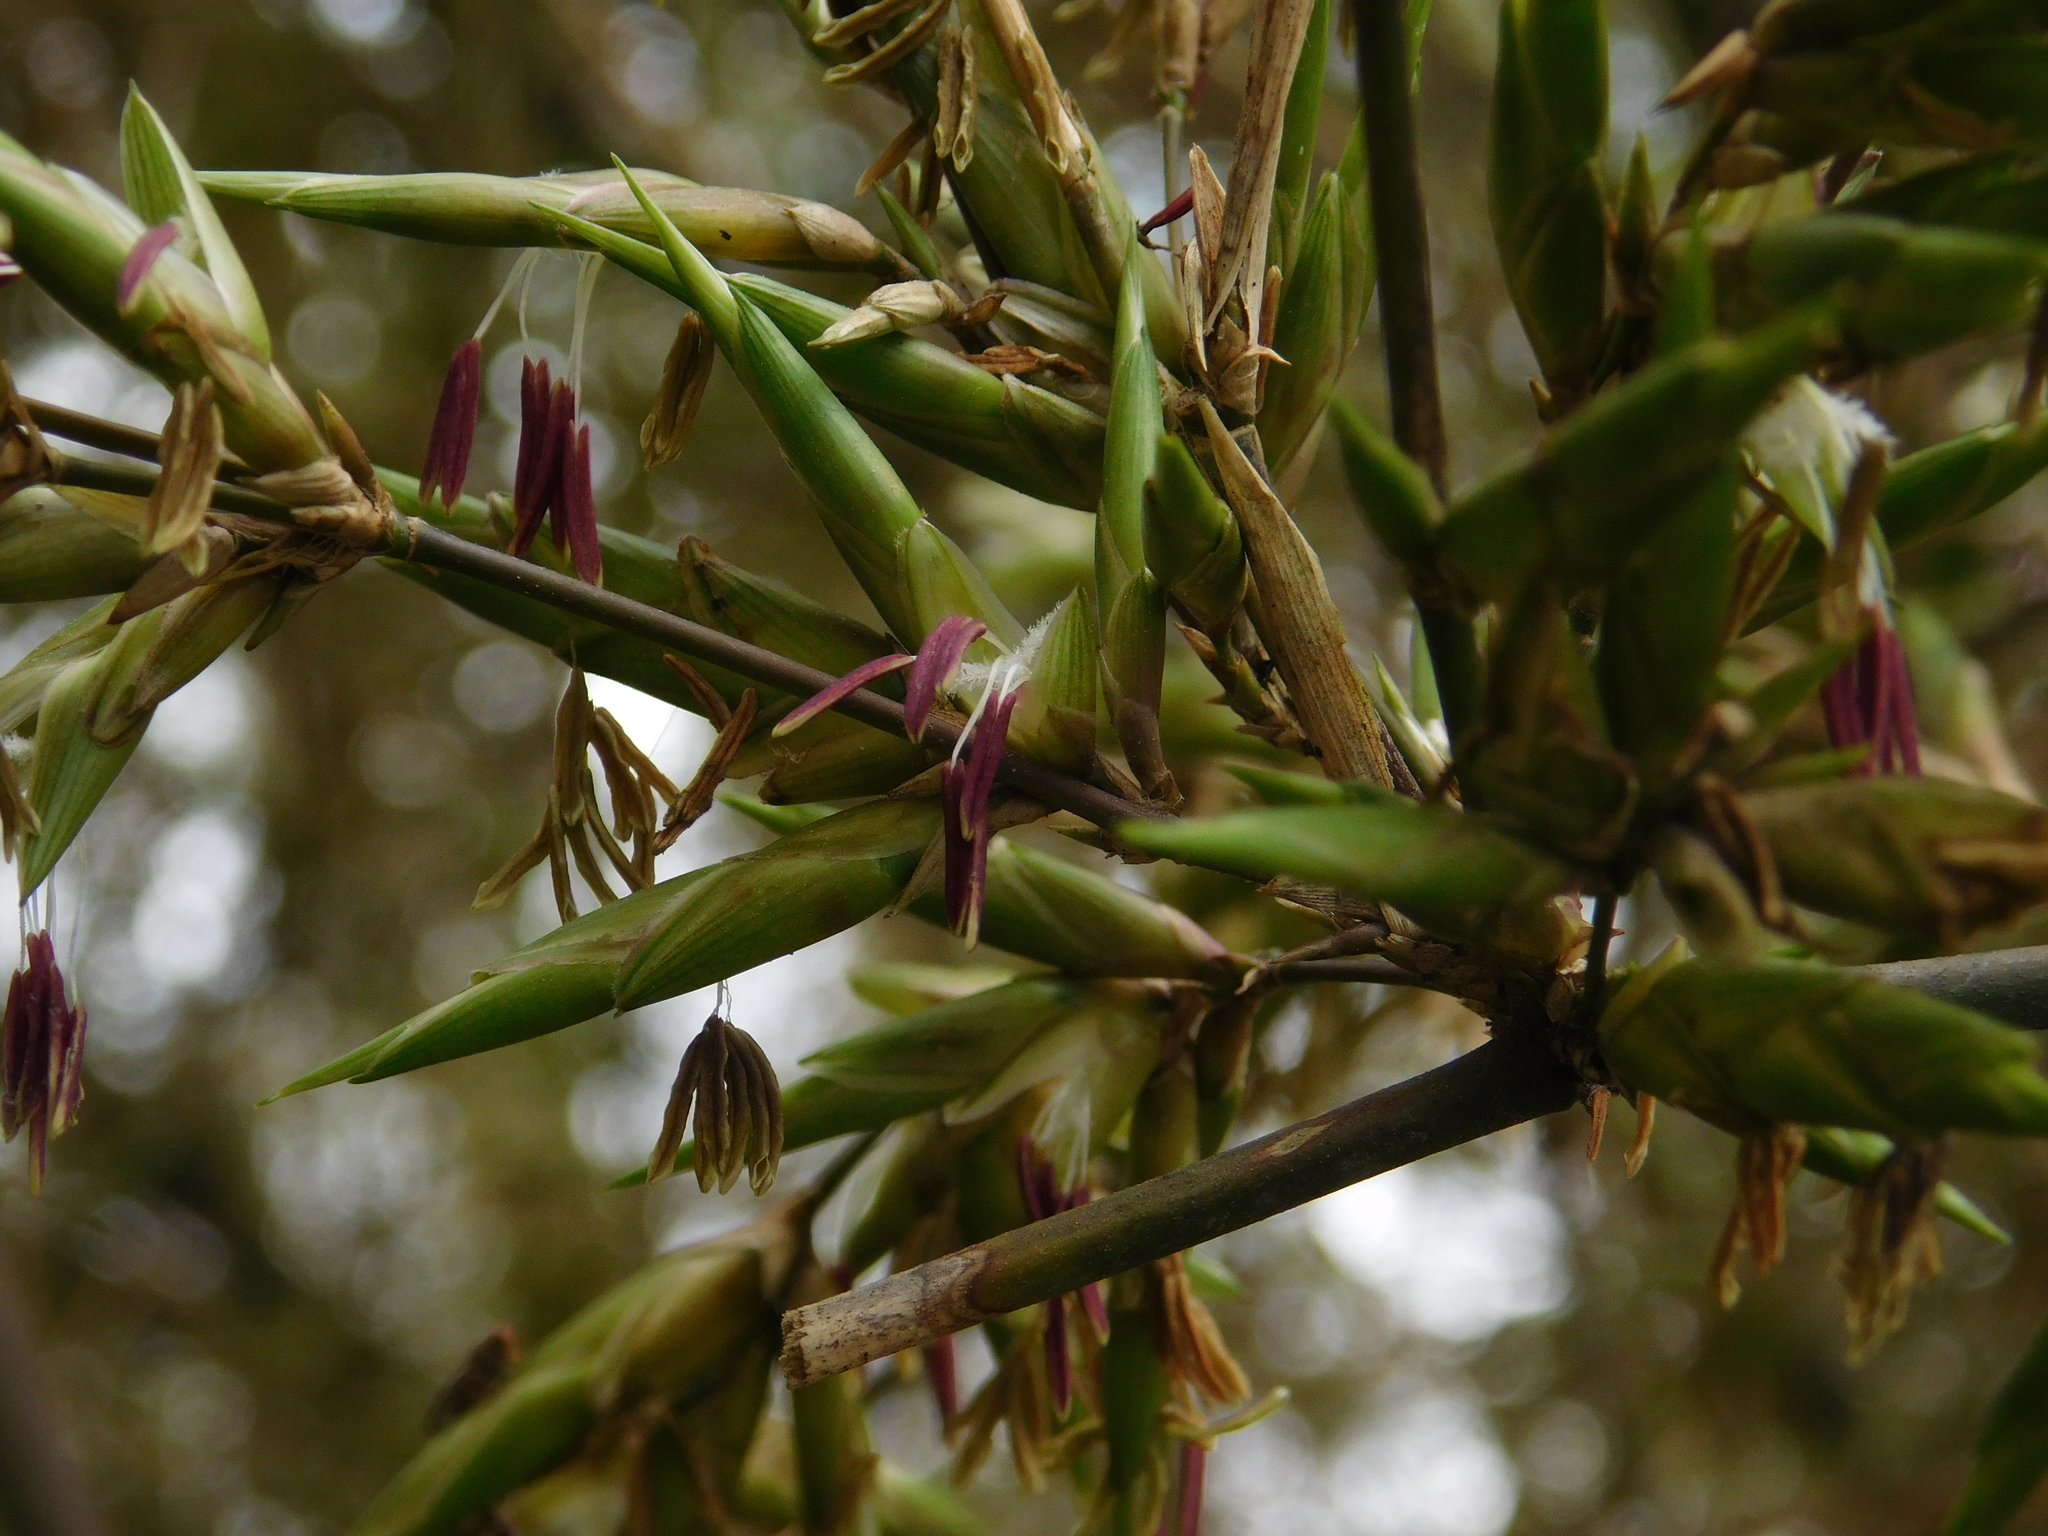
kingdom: Plantae
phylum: Tracheophyta
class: Liliopsida
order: Poales
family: Poaceae
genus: Guadua
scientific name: Guadua trinii
